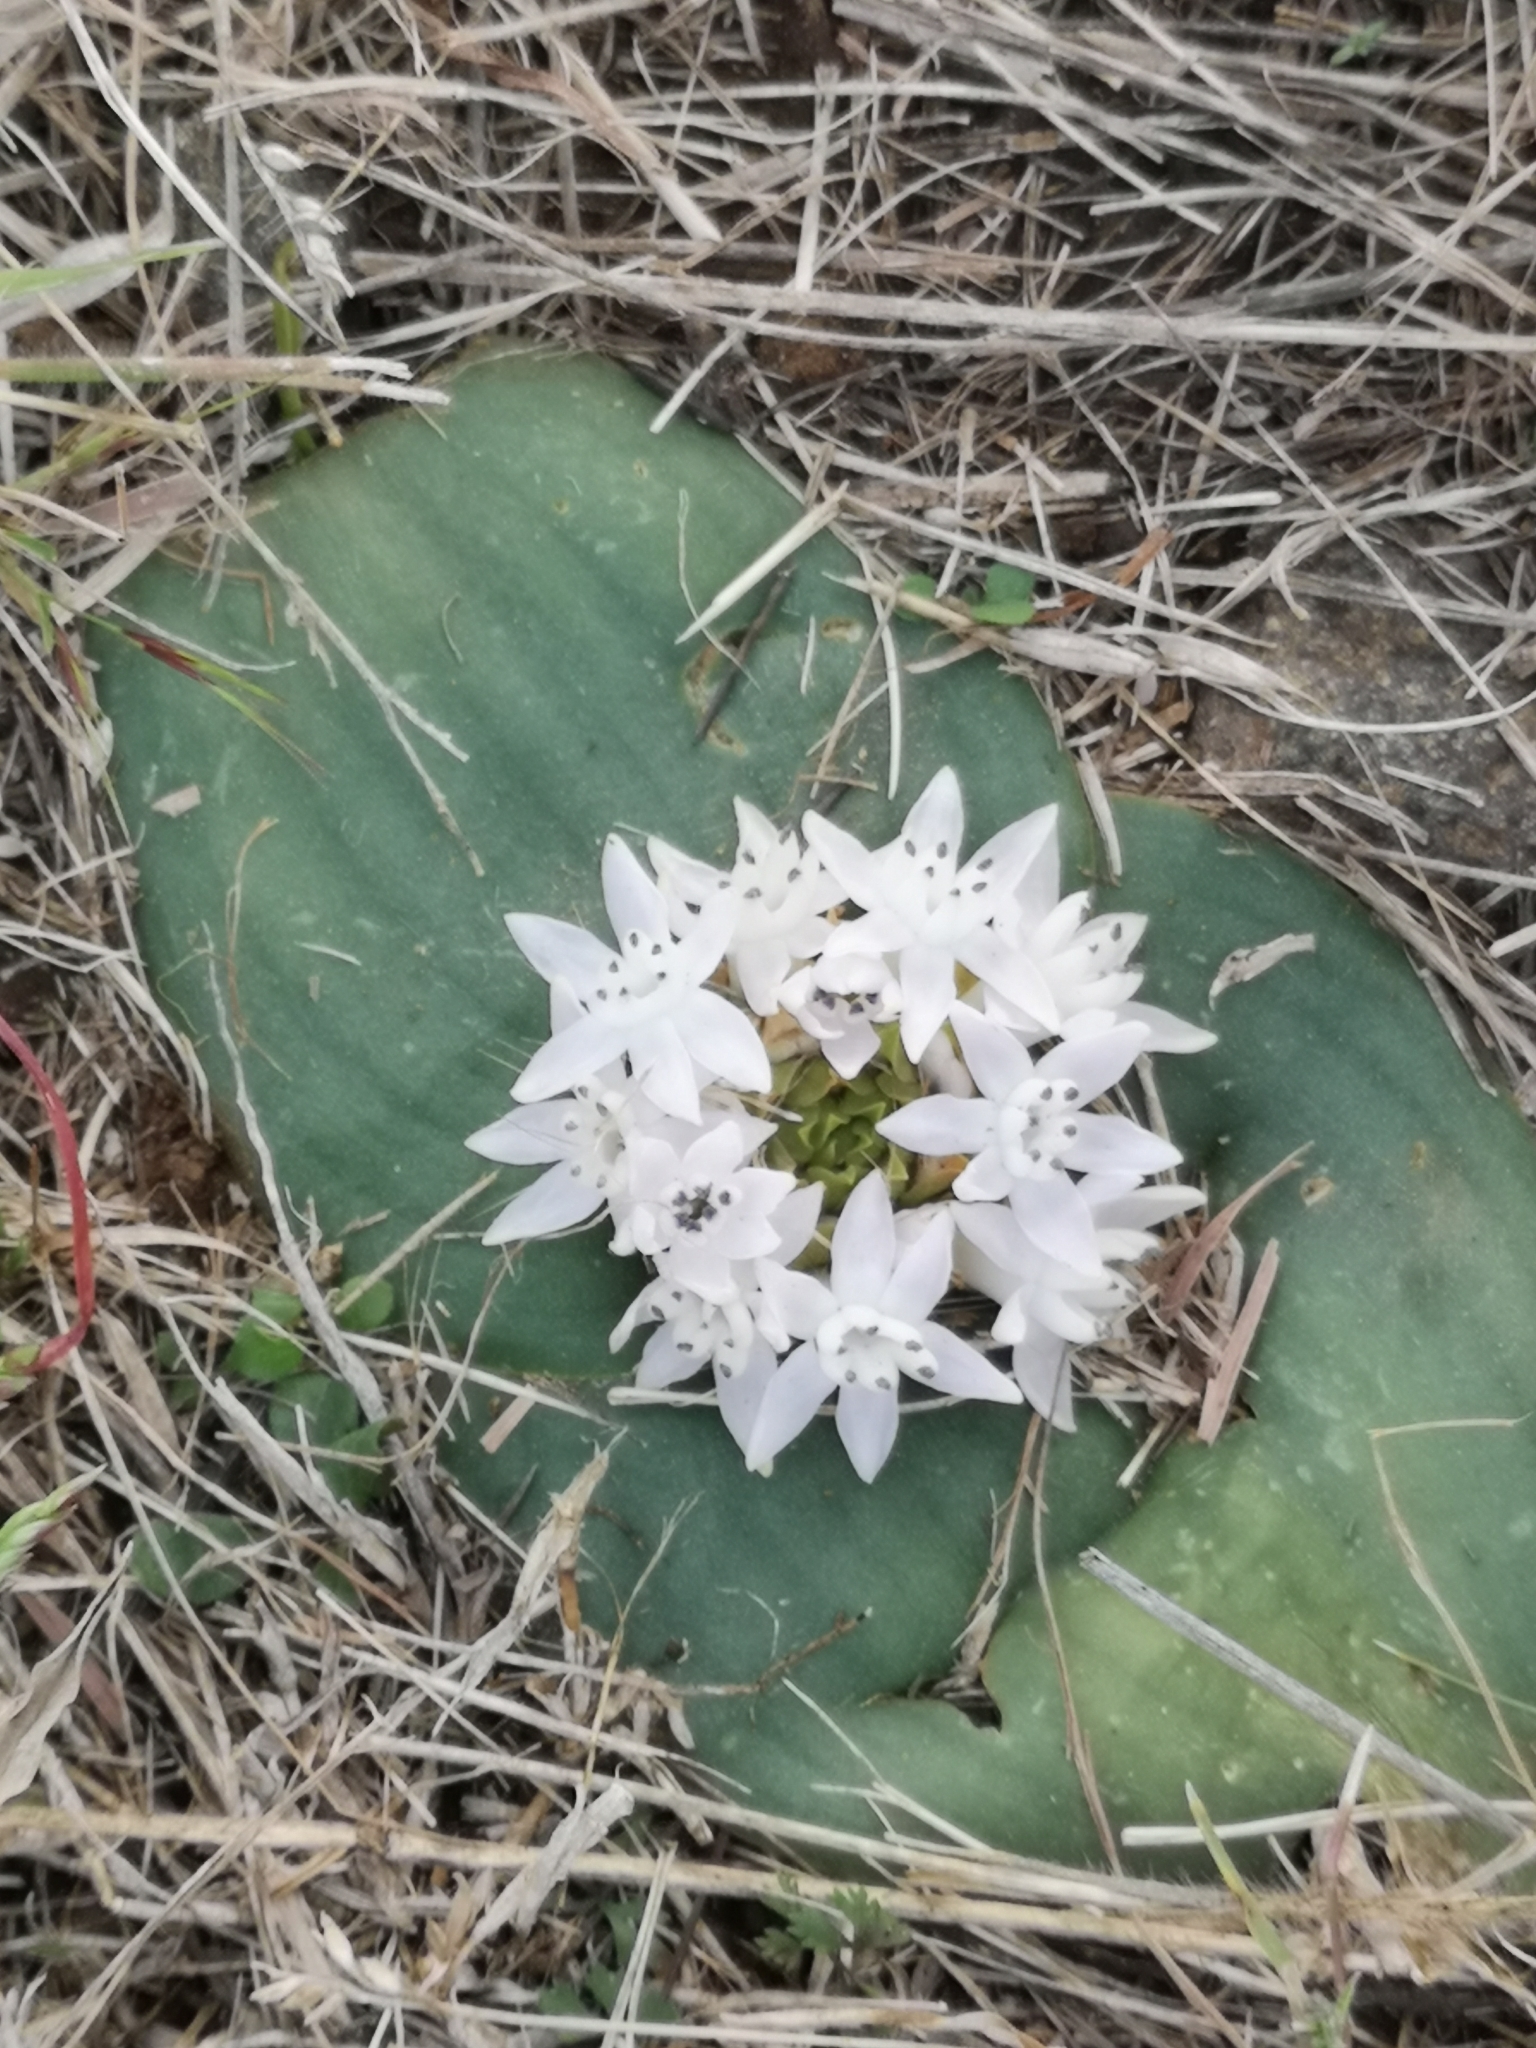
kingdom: Plantae
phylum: Tracheophyta
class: Liliopsida
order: Asparagales
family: Asparagaceae
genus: Massonia
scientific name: Massonia jasminiflora
